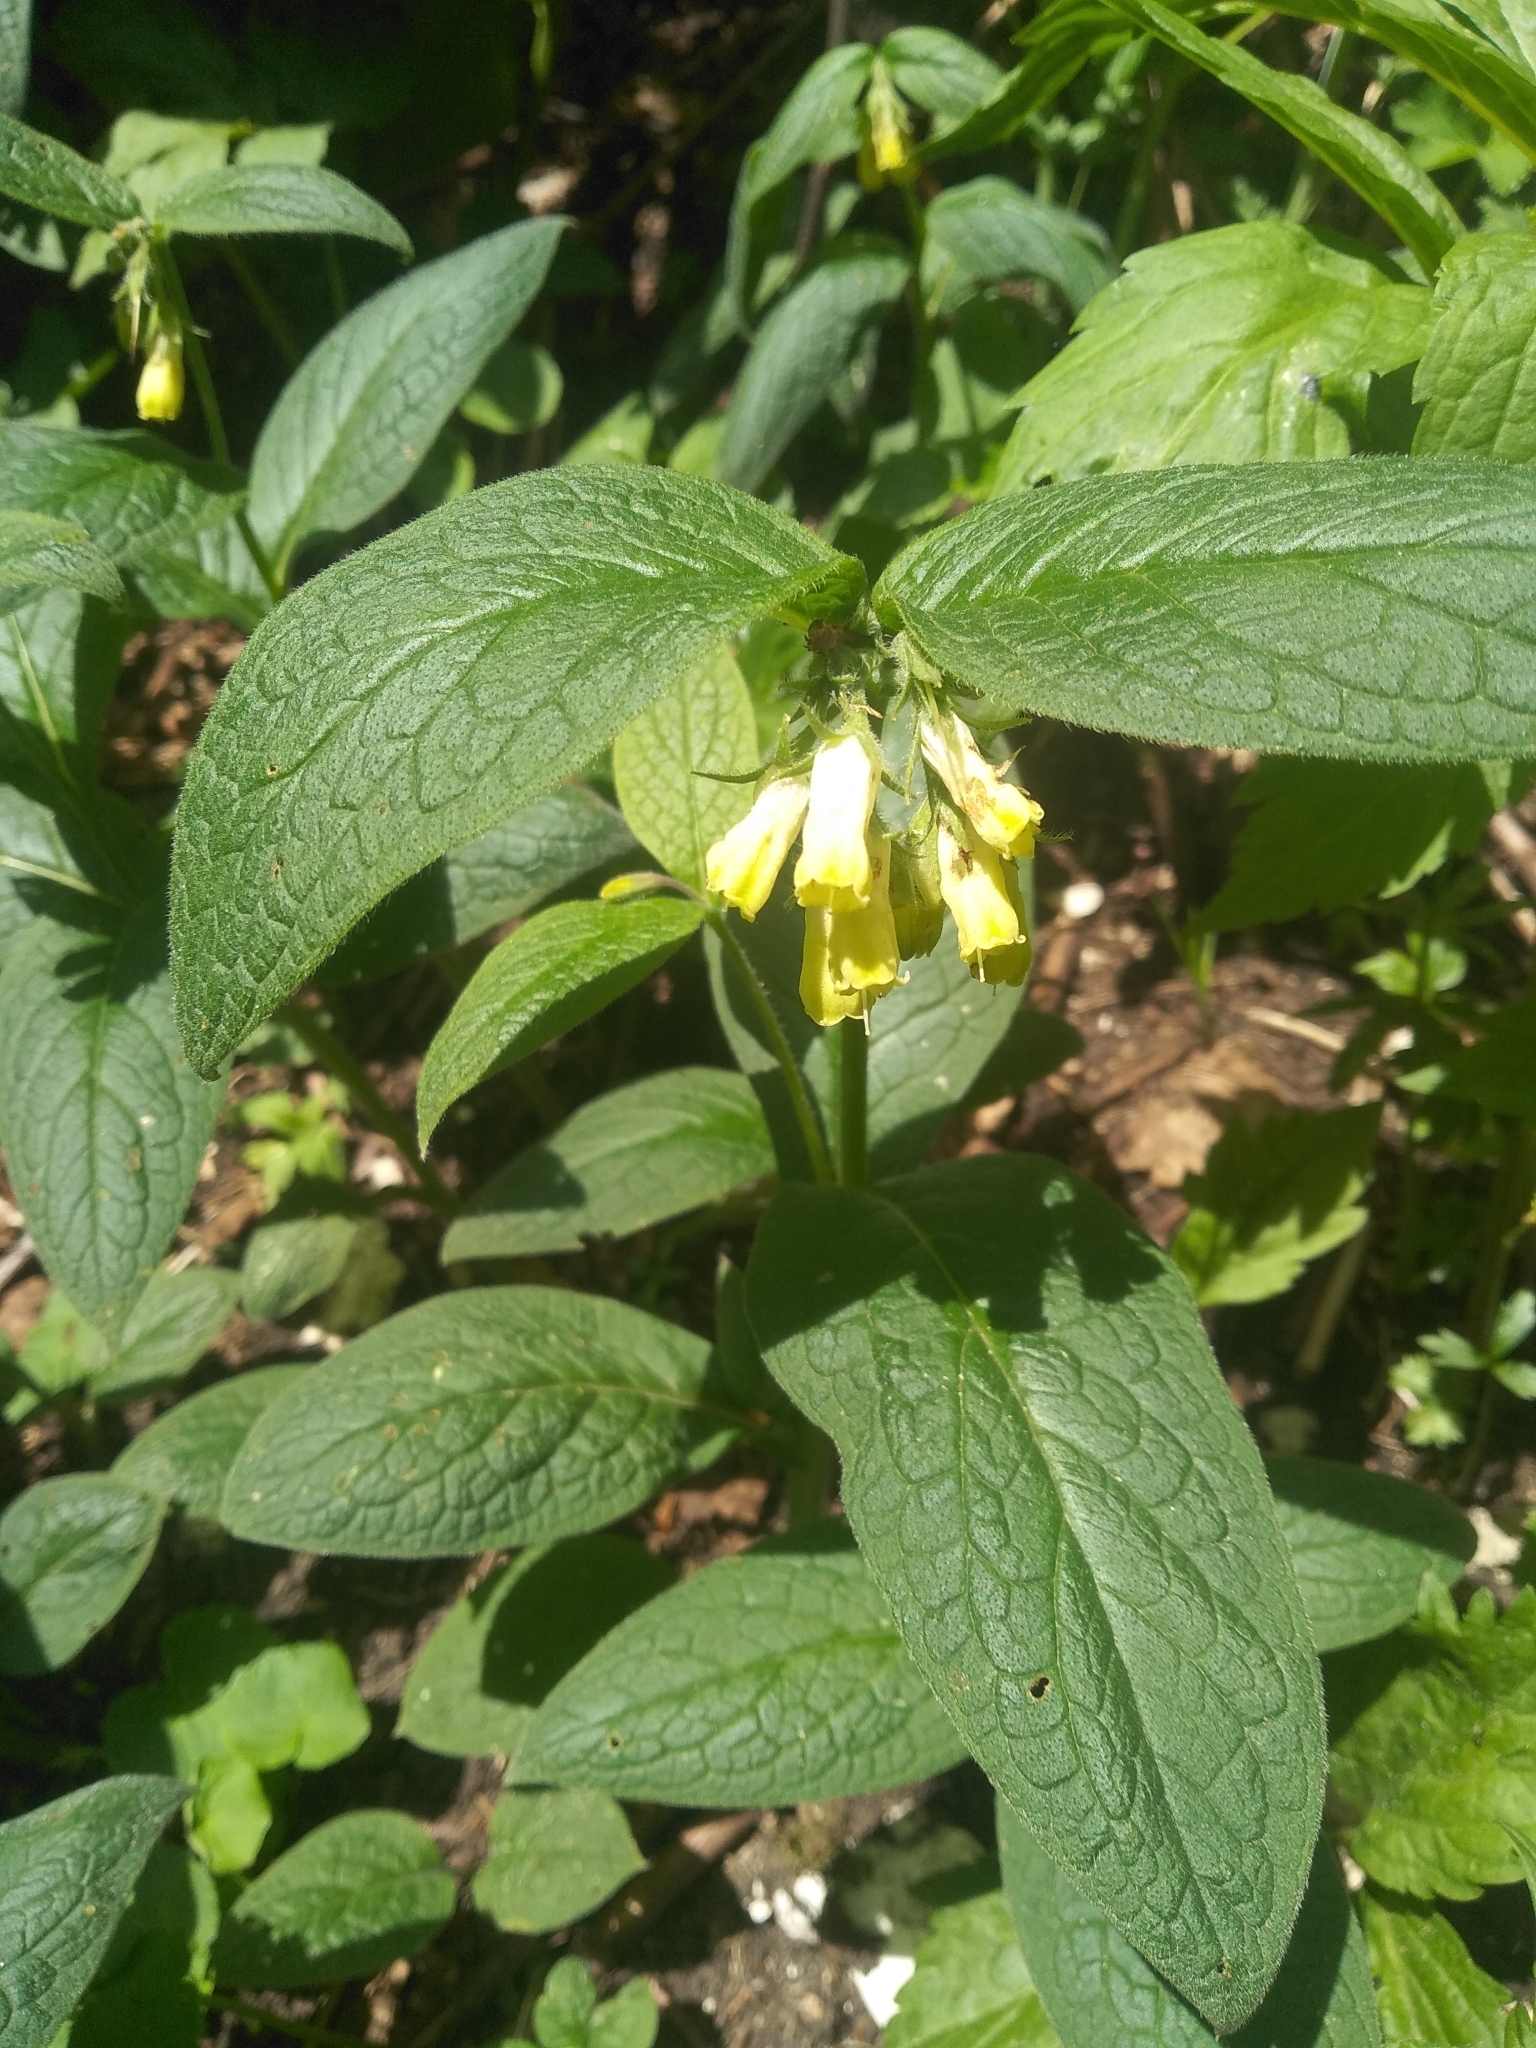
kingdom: Plantae
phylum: Tracheophyta
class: Magnoliopsida
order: Boraginales
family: Boraginaceae
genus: Symphytum
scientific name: Symphytum tuberosum
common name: Tuberous comfrey
